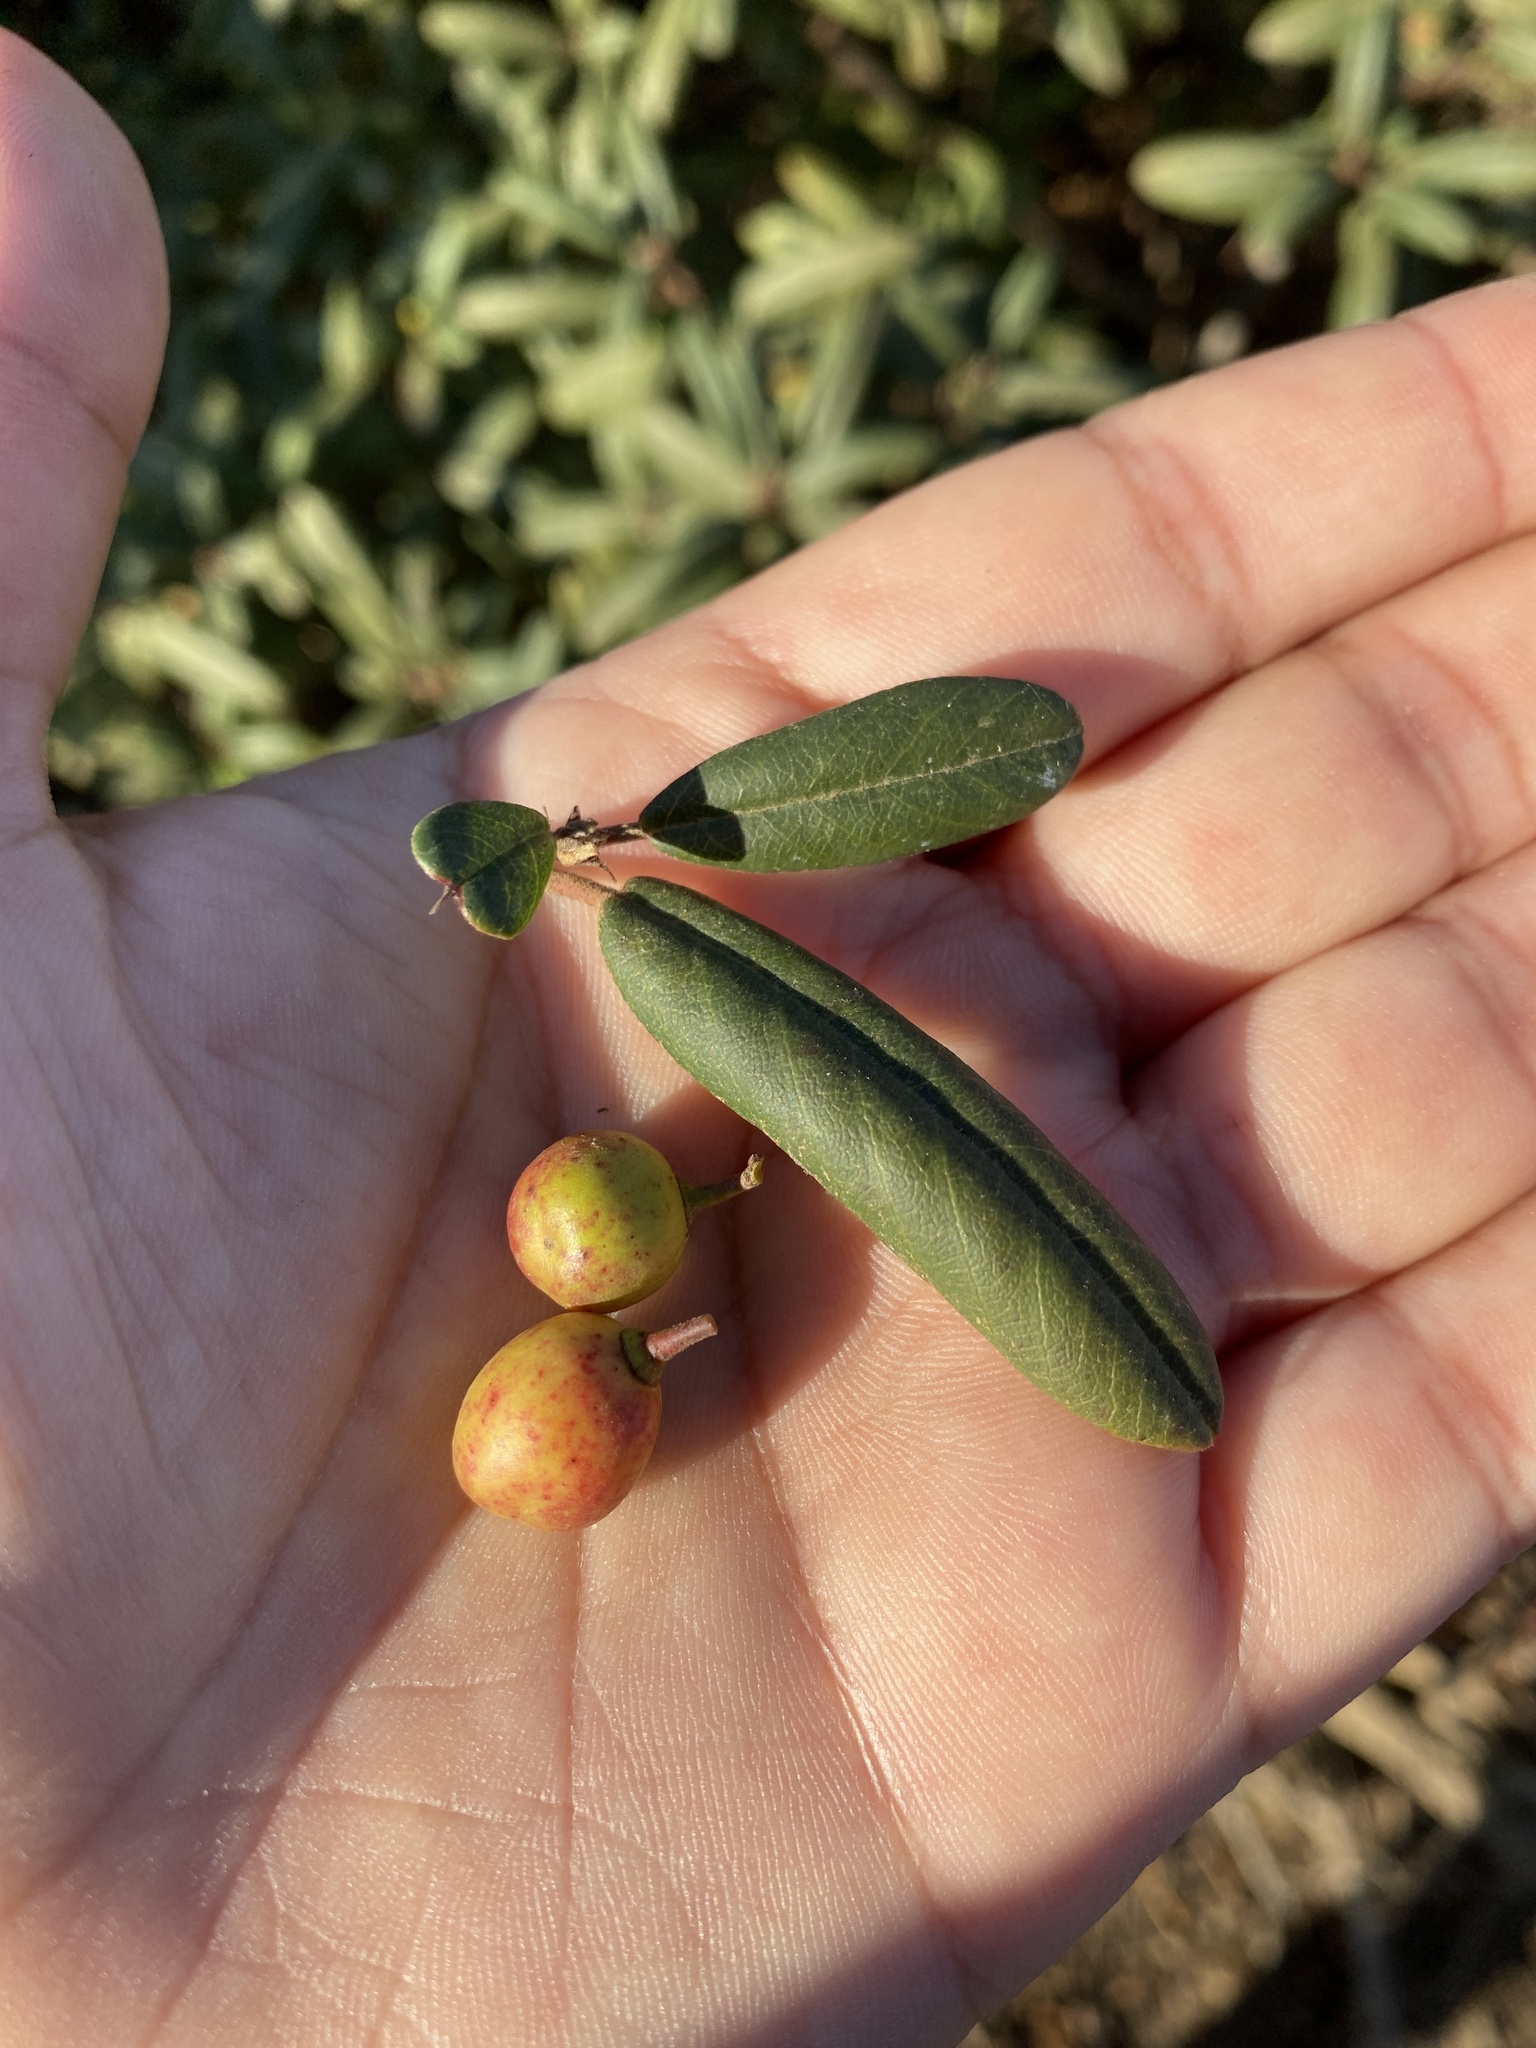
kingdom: Plantae
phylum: Tracheophyta
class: Magnoliopsida
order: Rosales
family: Rhamnaceae
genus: Frangula
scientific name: Frangula californica
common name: California buckthorn
